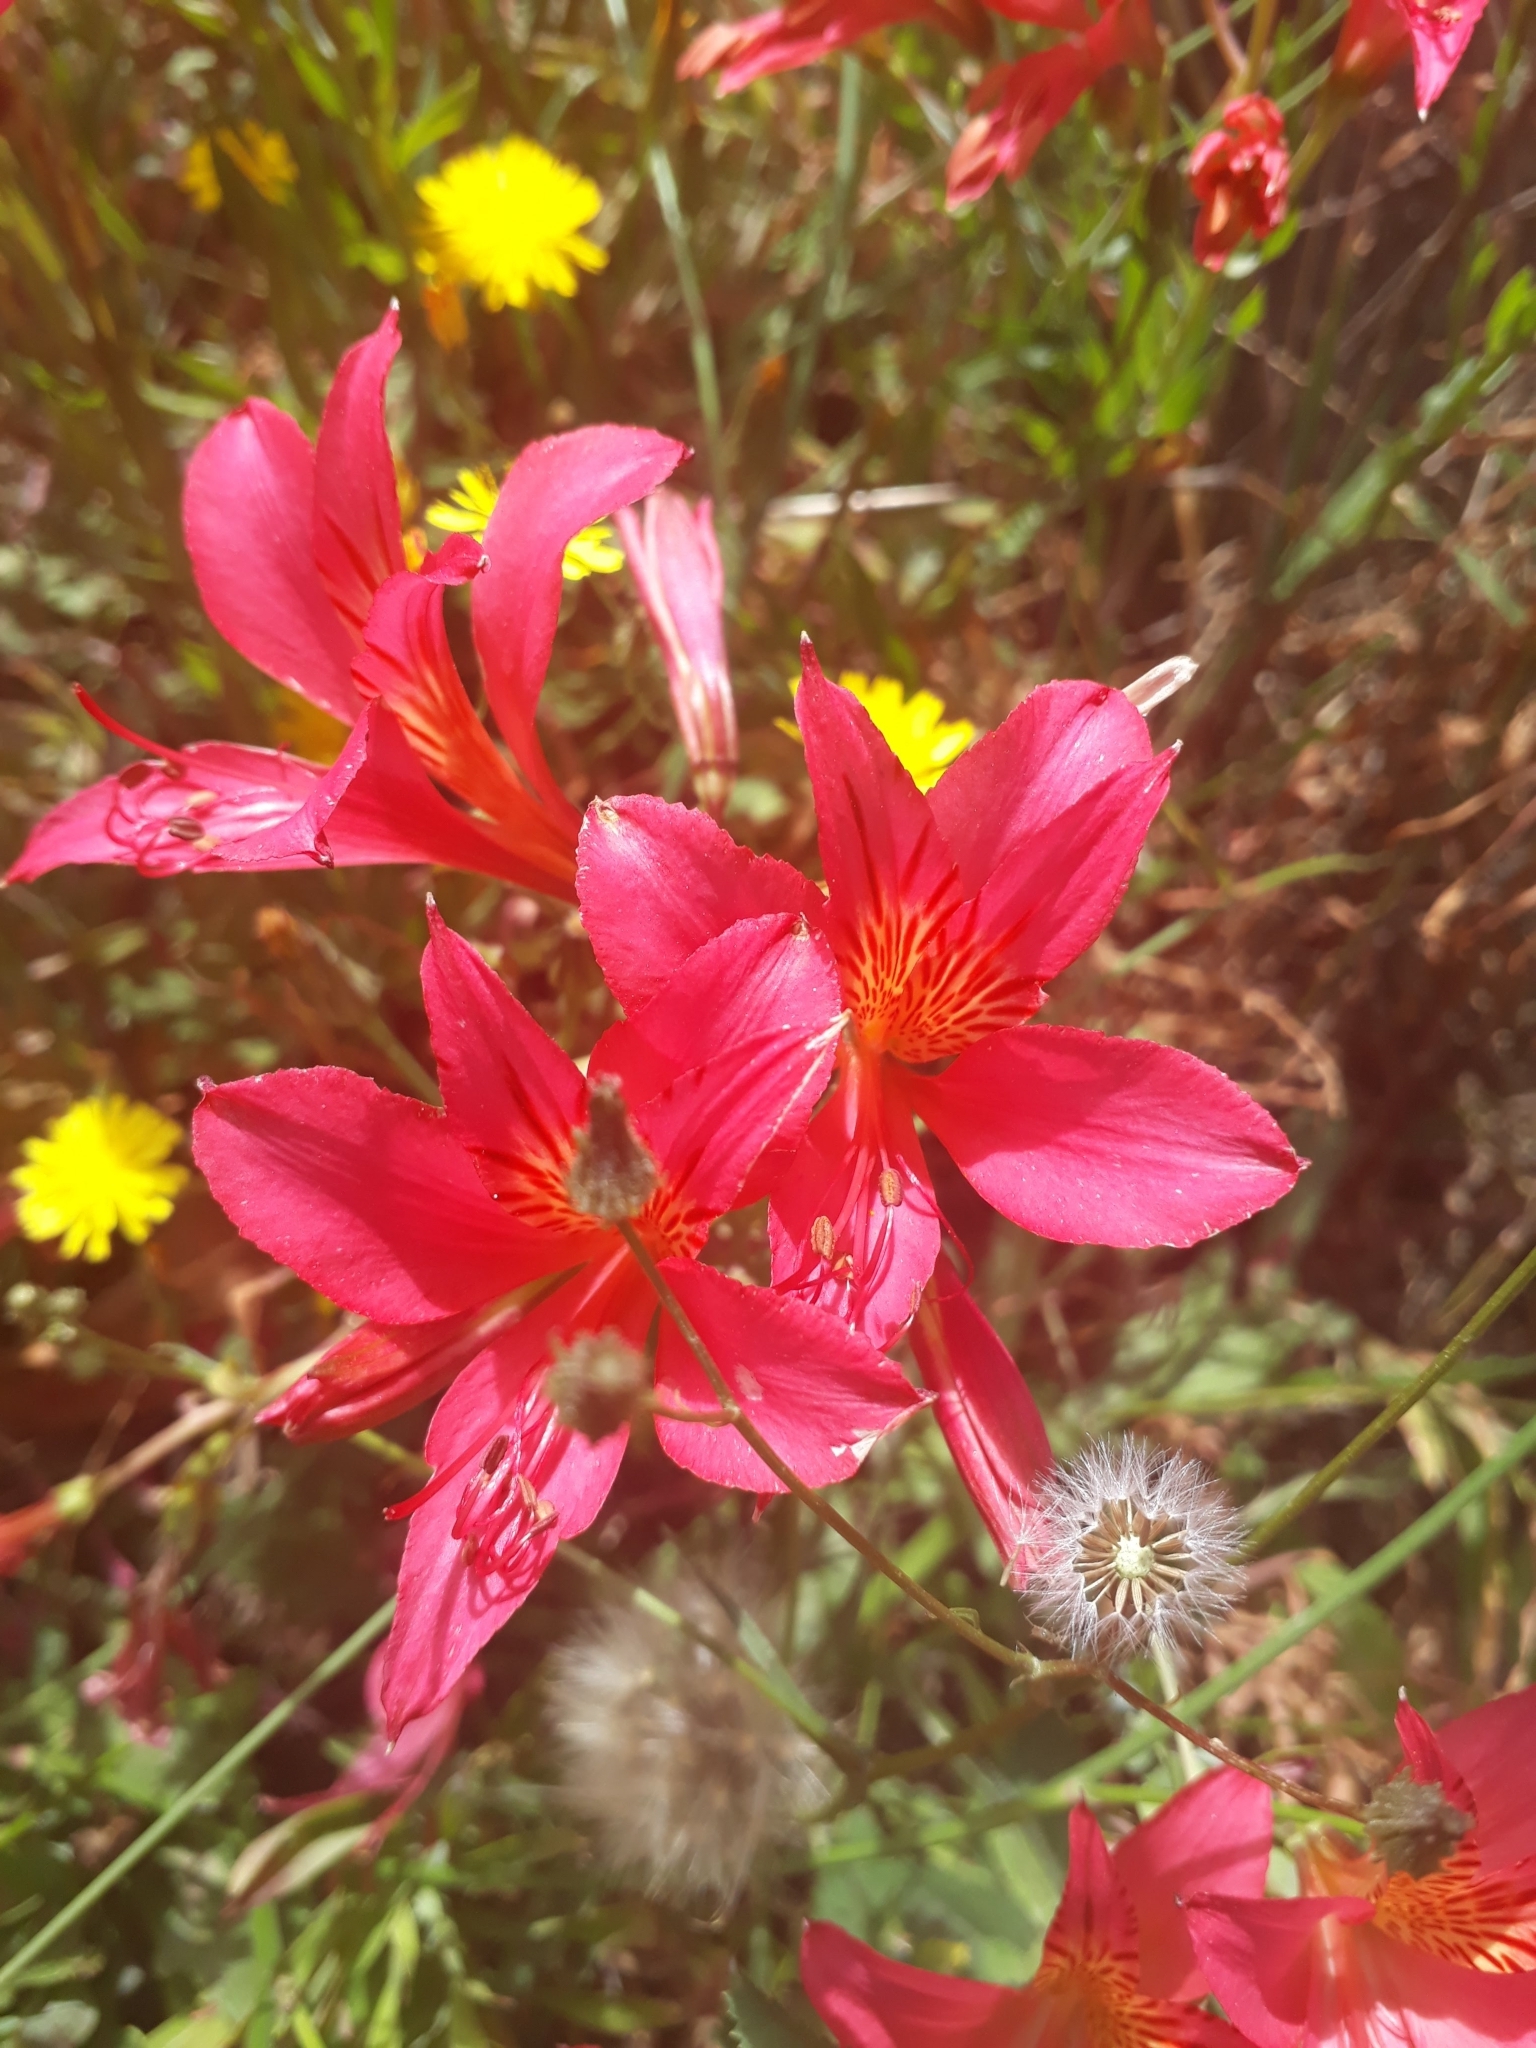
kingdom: Plantae
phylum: Tracheophyta
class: Liliopsida
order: Liliales
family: Alstroemeriaceae
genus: Alstroemeria
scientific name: Alstroemeria ligtu
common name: St. martin's-flower
